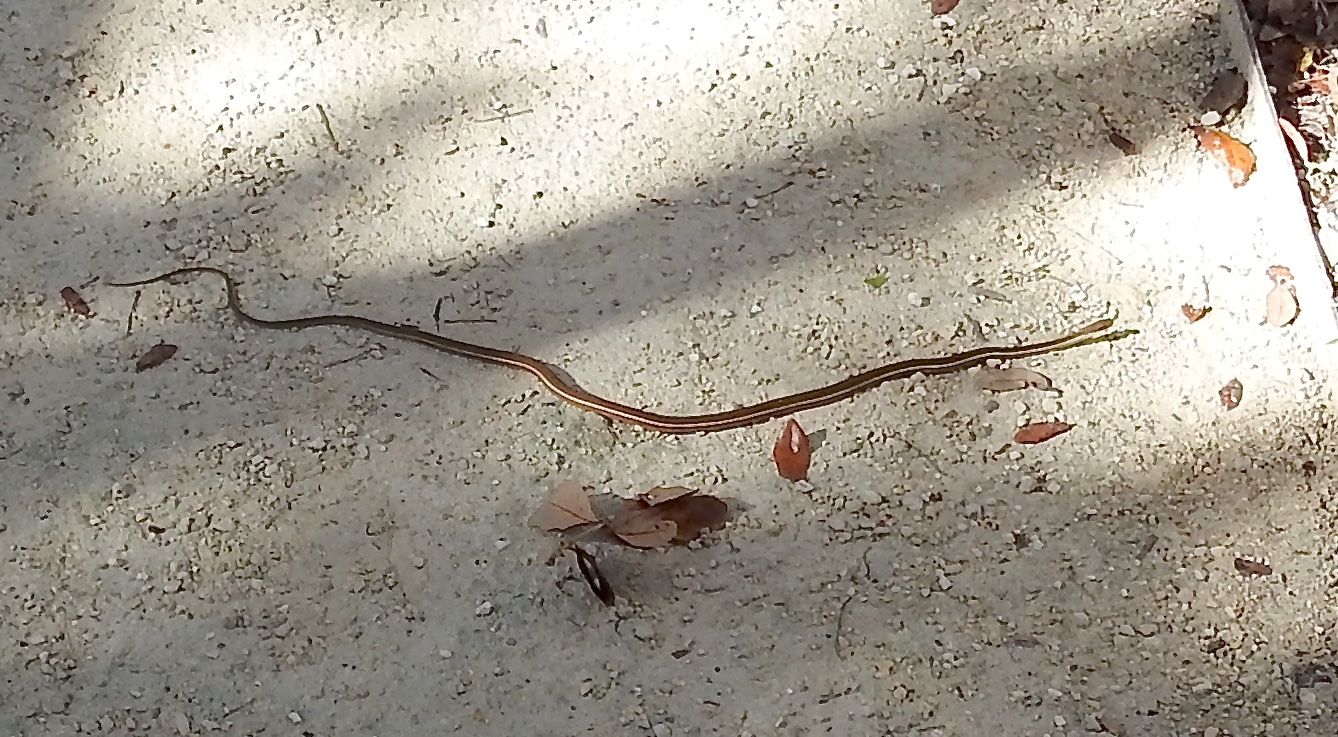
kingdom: Animalia
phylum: Chordata
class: Squamata
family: Colubridae
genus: Thamnophis
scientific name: Thamnophis saurita
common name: Eastern ribbonsnake
